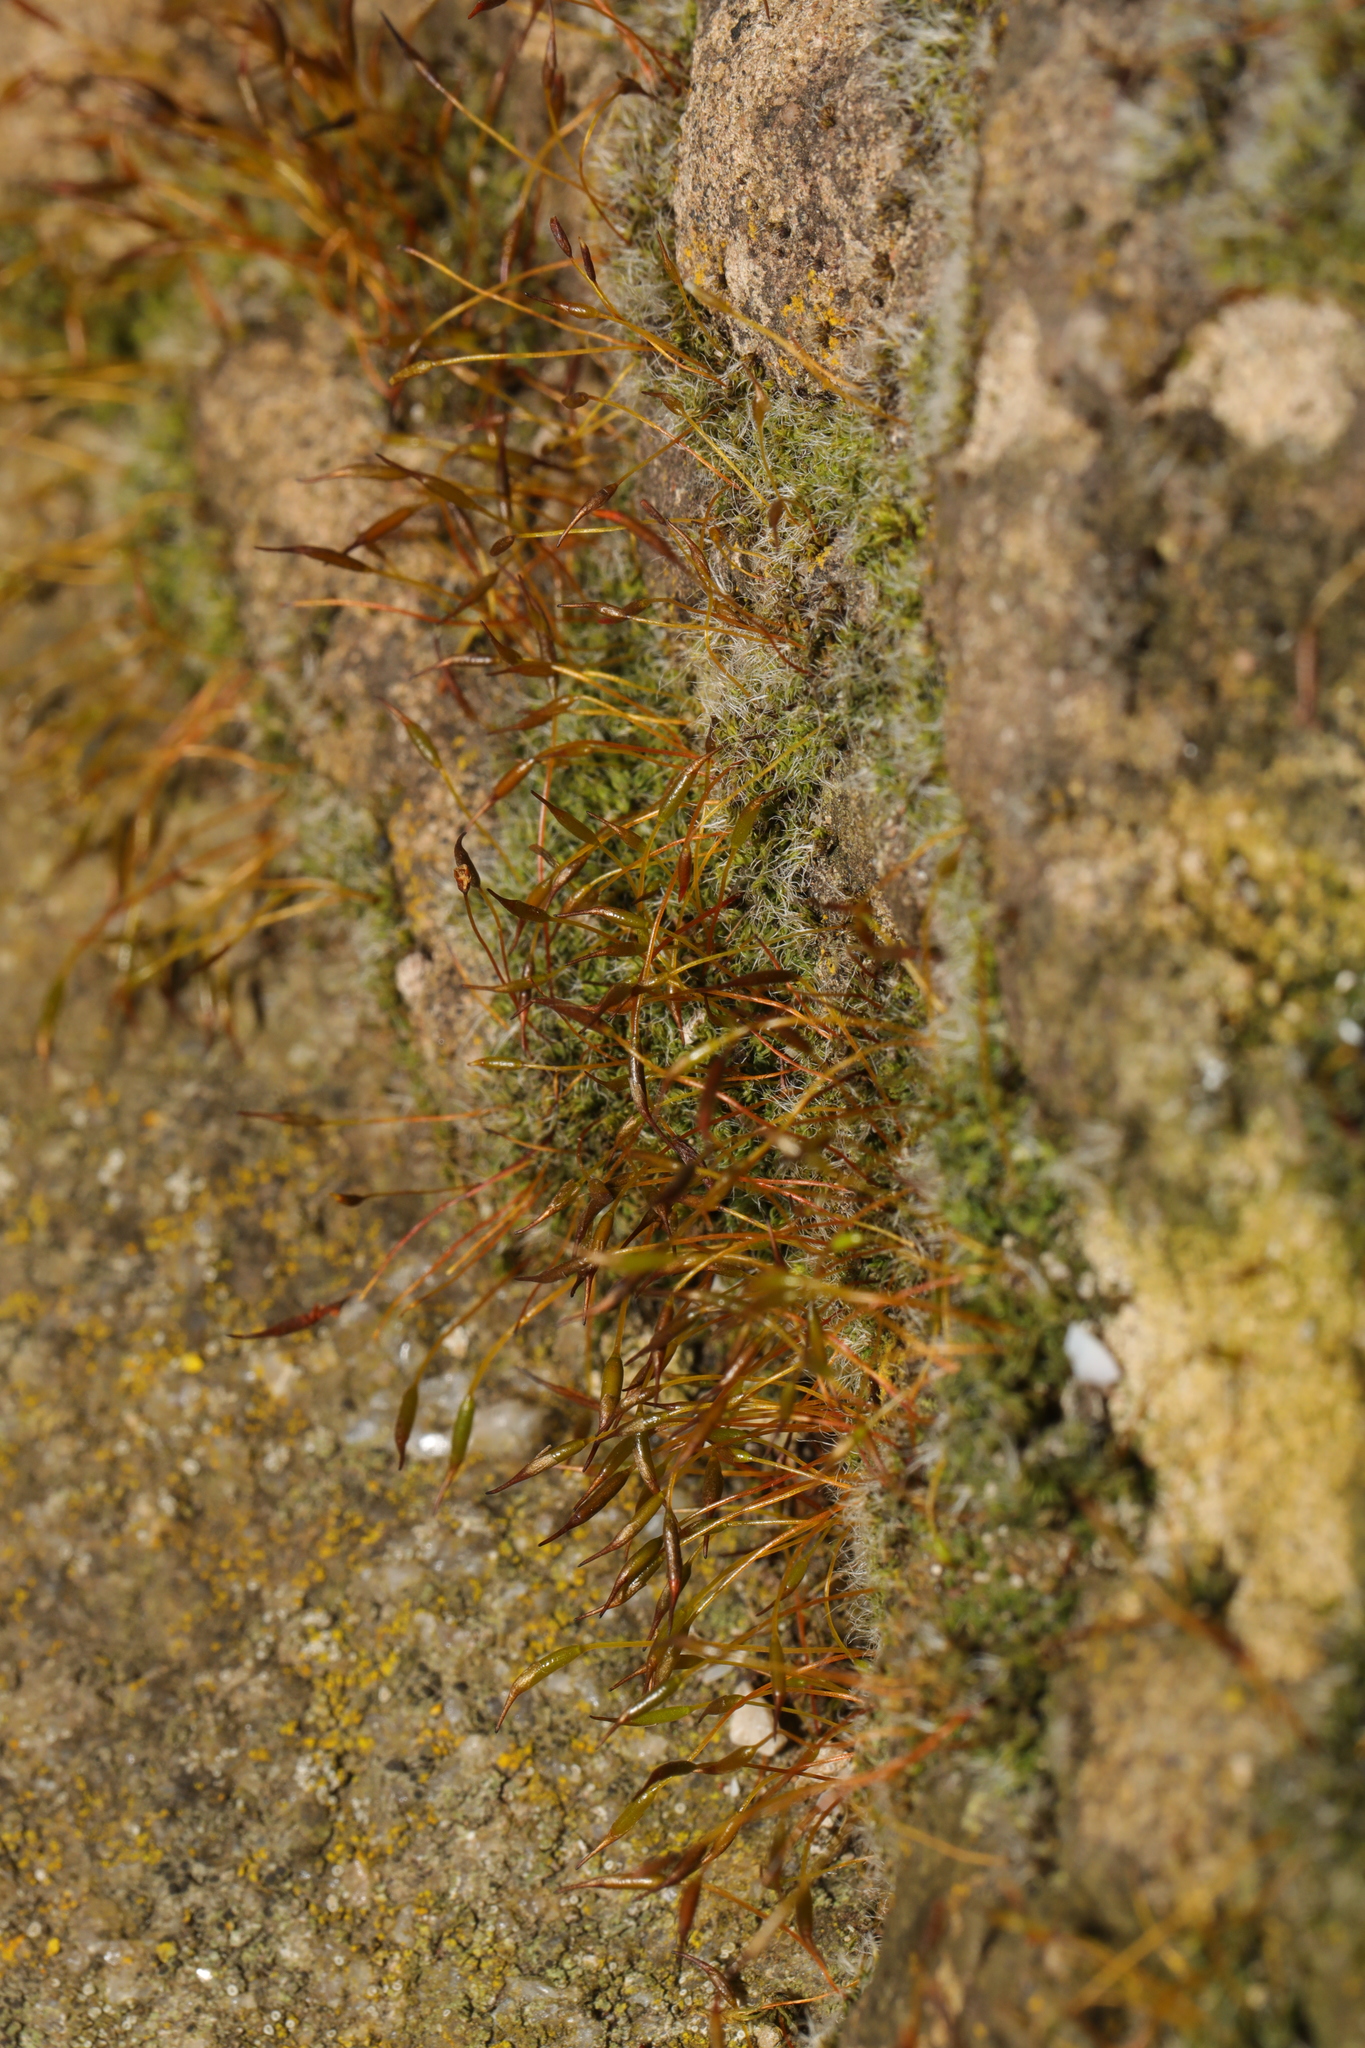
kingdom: Plantae
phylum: Bryophyta
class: Bryopsida
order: Pottiales
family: Pottiaceae
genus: Tortula
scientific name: Tortula muralis
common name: Wall screw-moss
